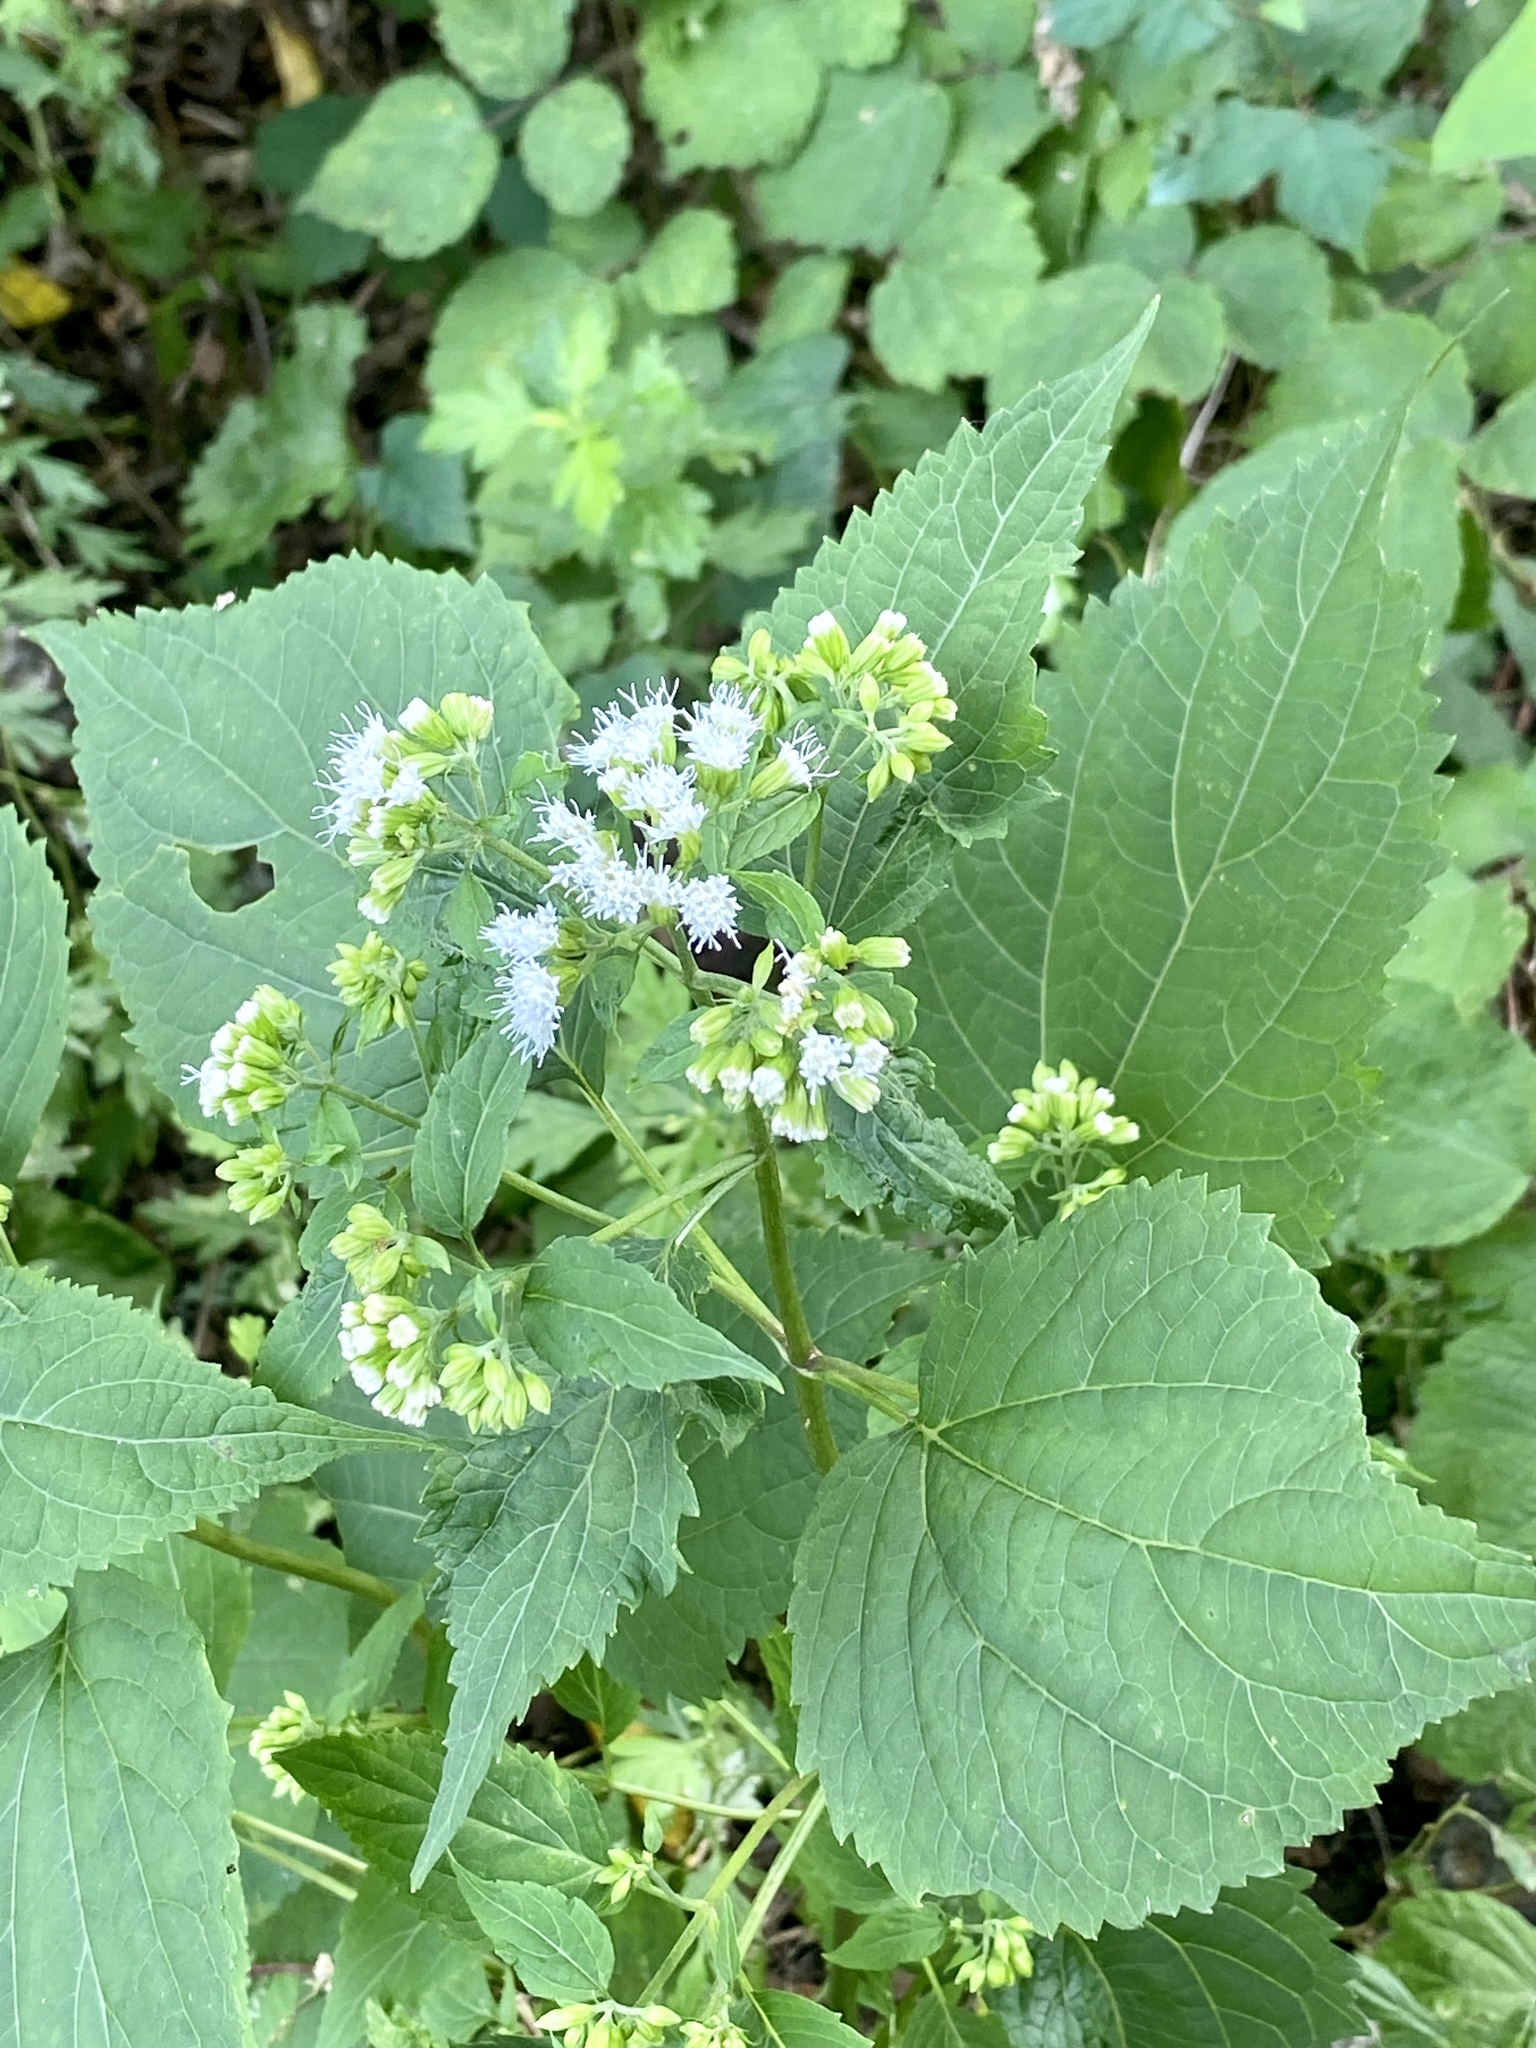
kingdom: Plantae
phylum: Tracheophyta
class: Magnoliopsida
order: Asterales
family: Asteraceae
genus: Ageratina
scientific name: Ageratina altissima
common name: White snakeroot
